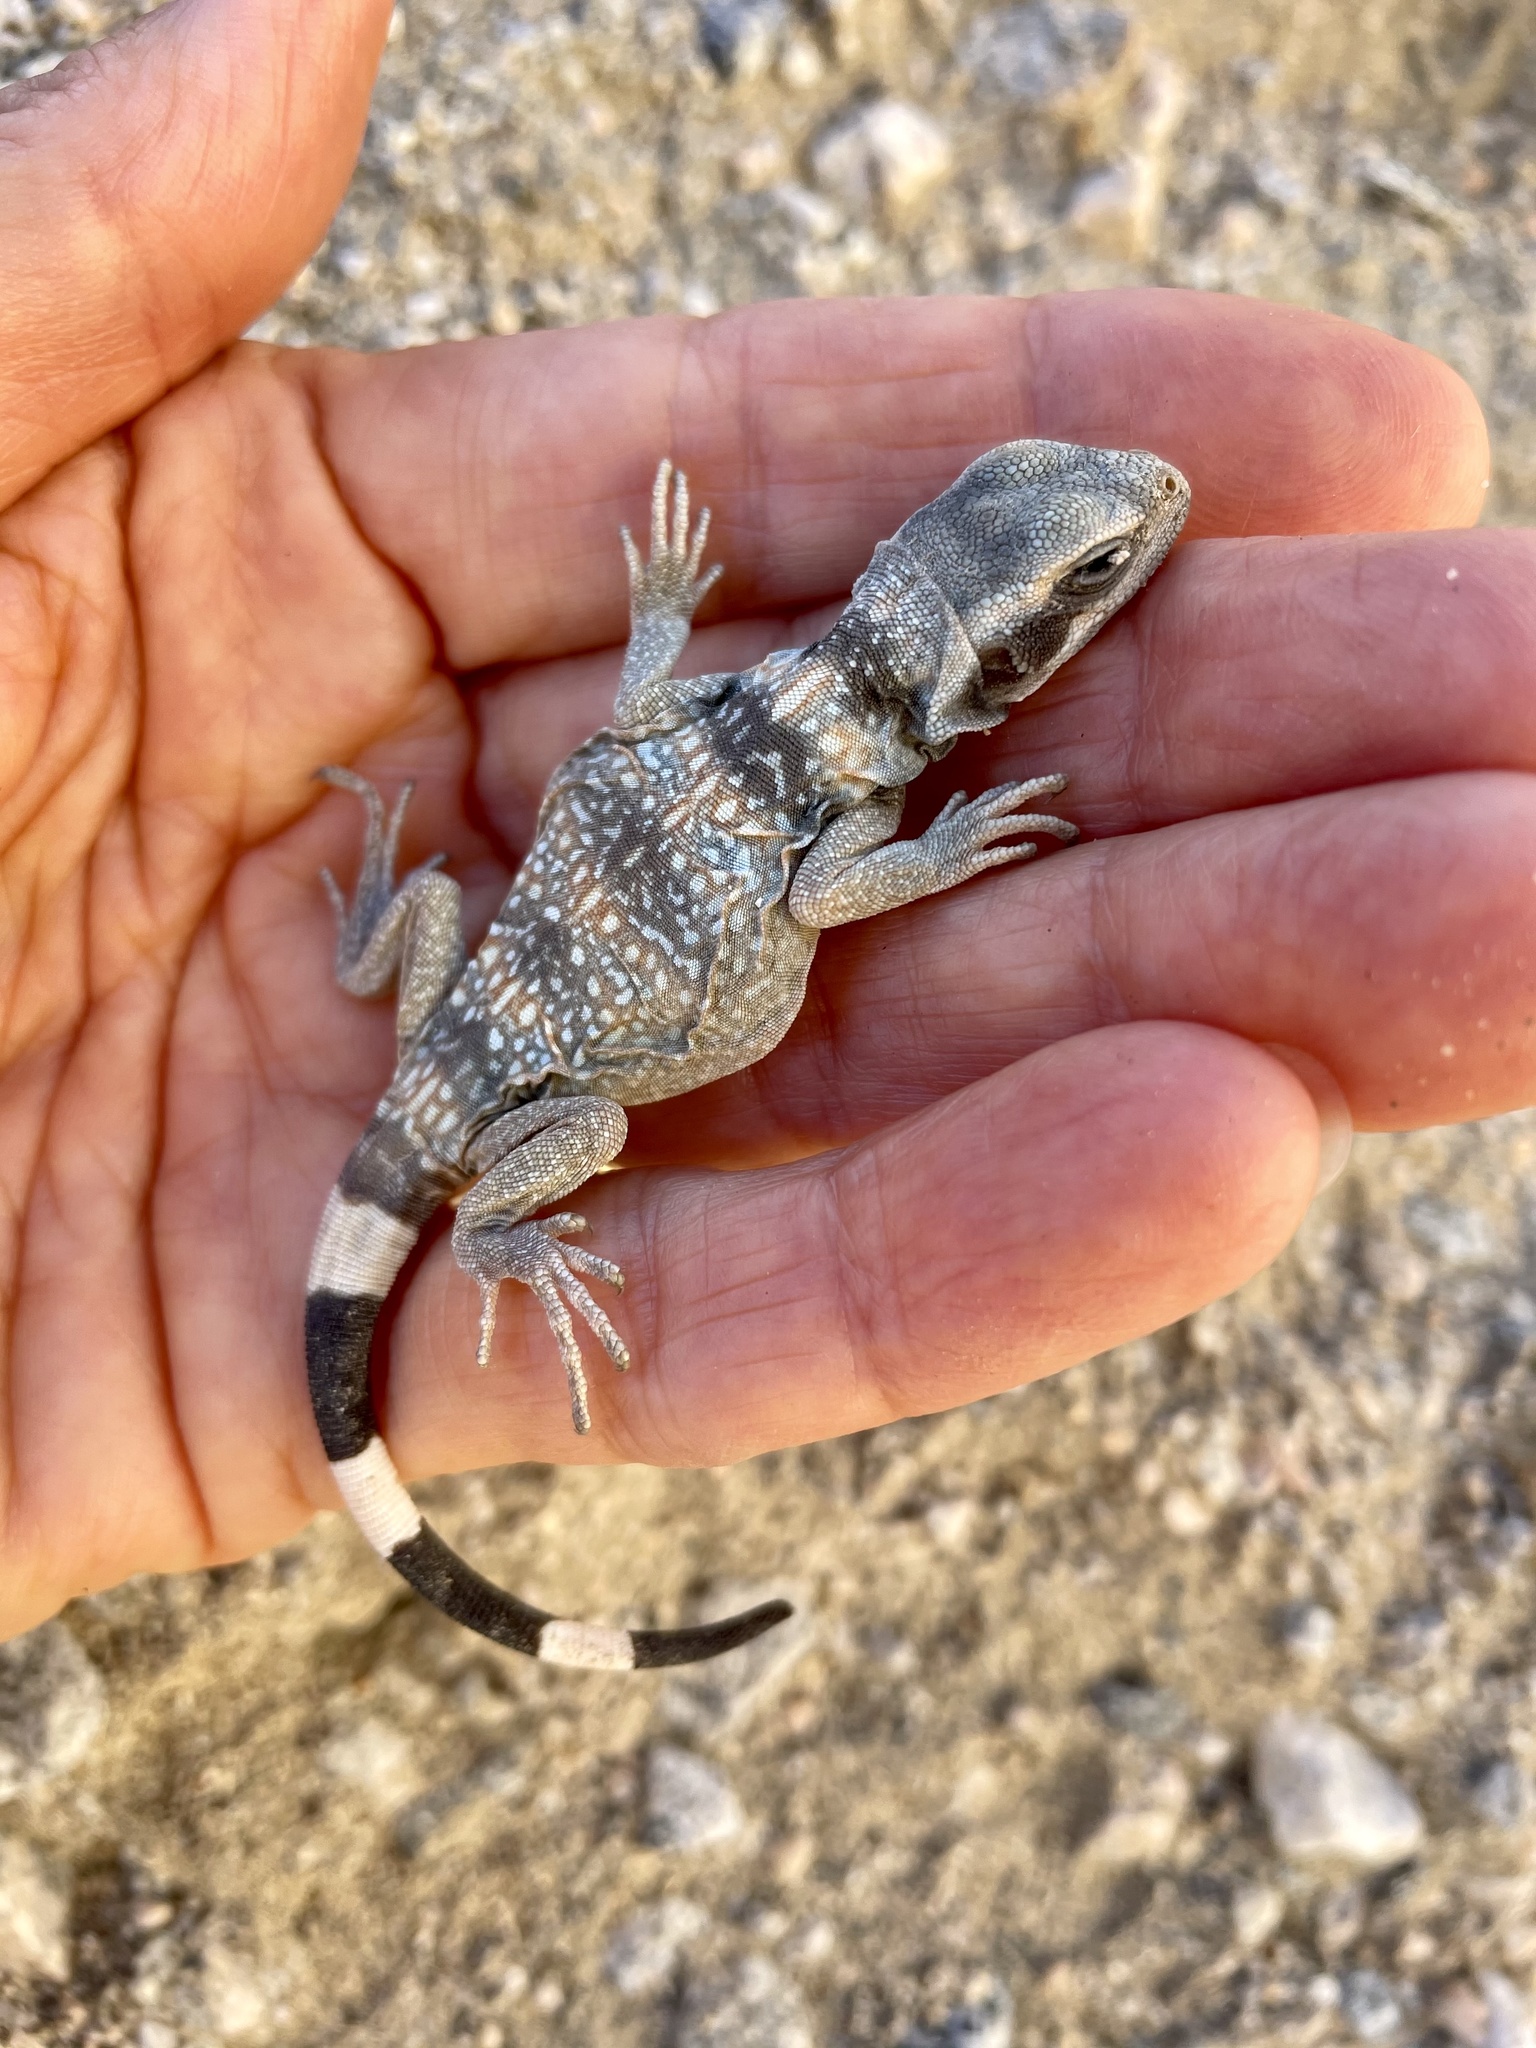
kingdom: Animalia
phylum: Chordata
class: Squamata
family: Iguanidae
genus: Sauromalus
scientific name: Sauromalus ater
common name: Northern chuckwalla
